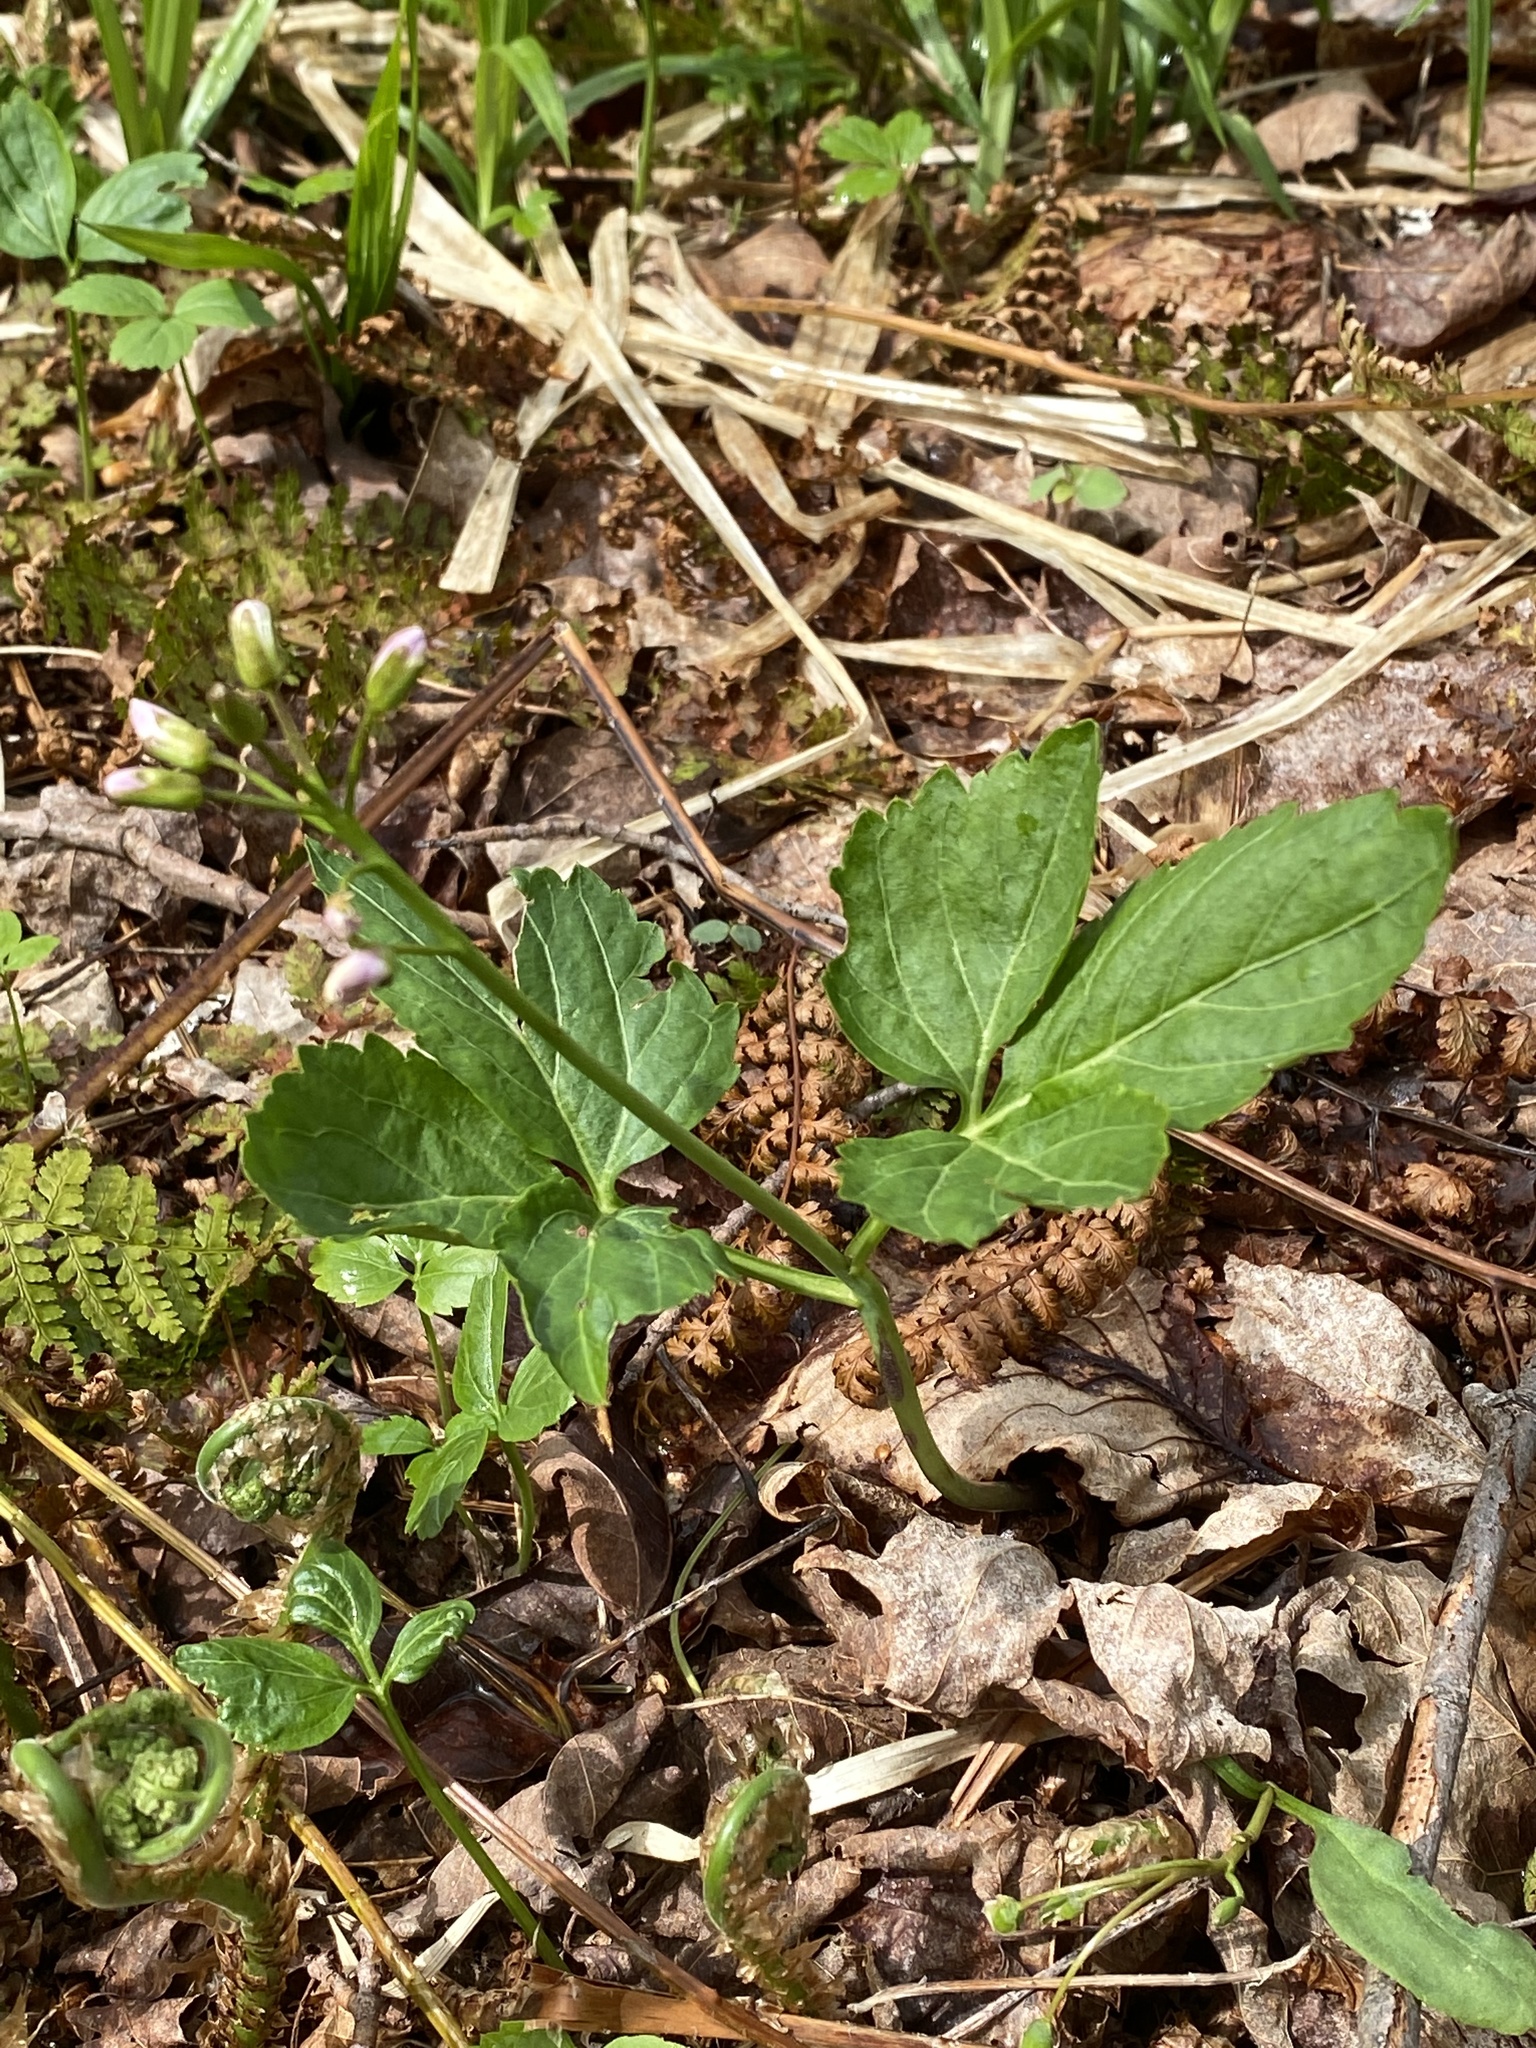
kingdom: Plantae
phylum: Tracheophyta
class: Magnoliopsida
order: Brassicales
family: Brassicaceae
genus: Cardamine
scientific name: Cardamine diphylla
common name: Broad-leaved toothwort
